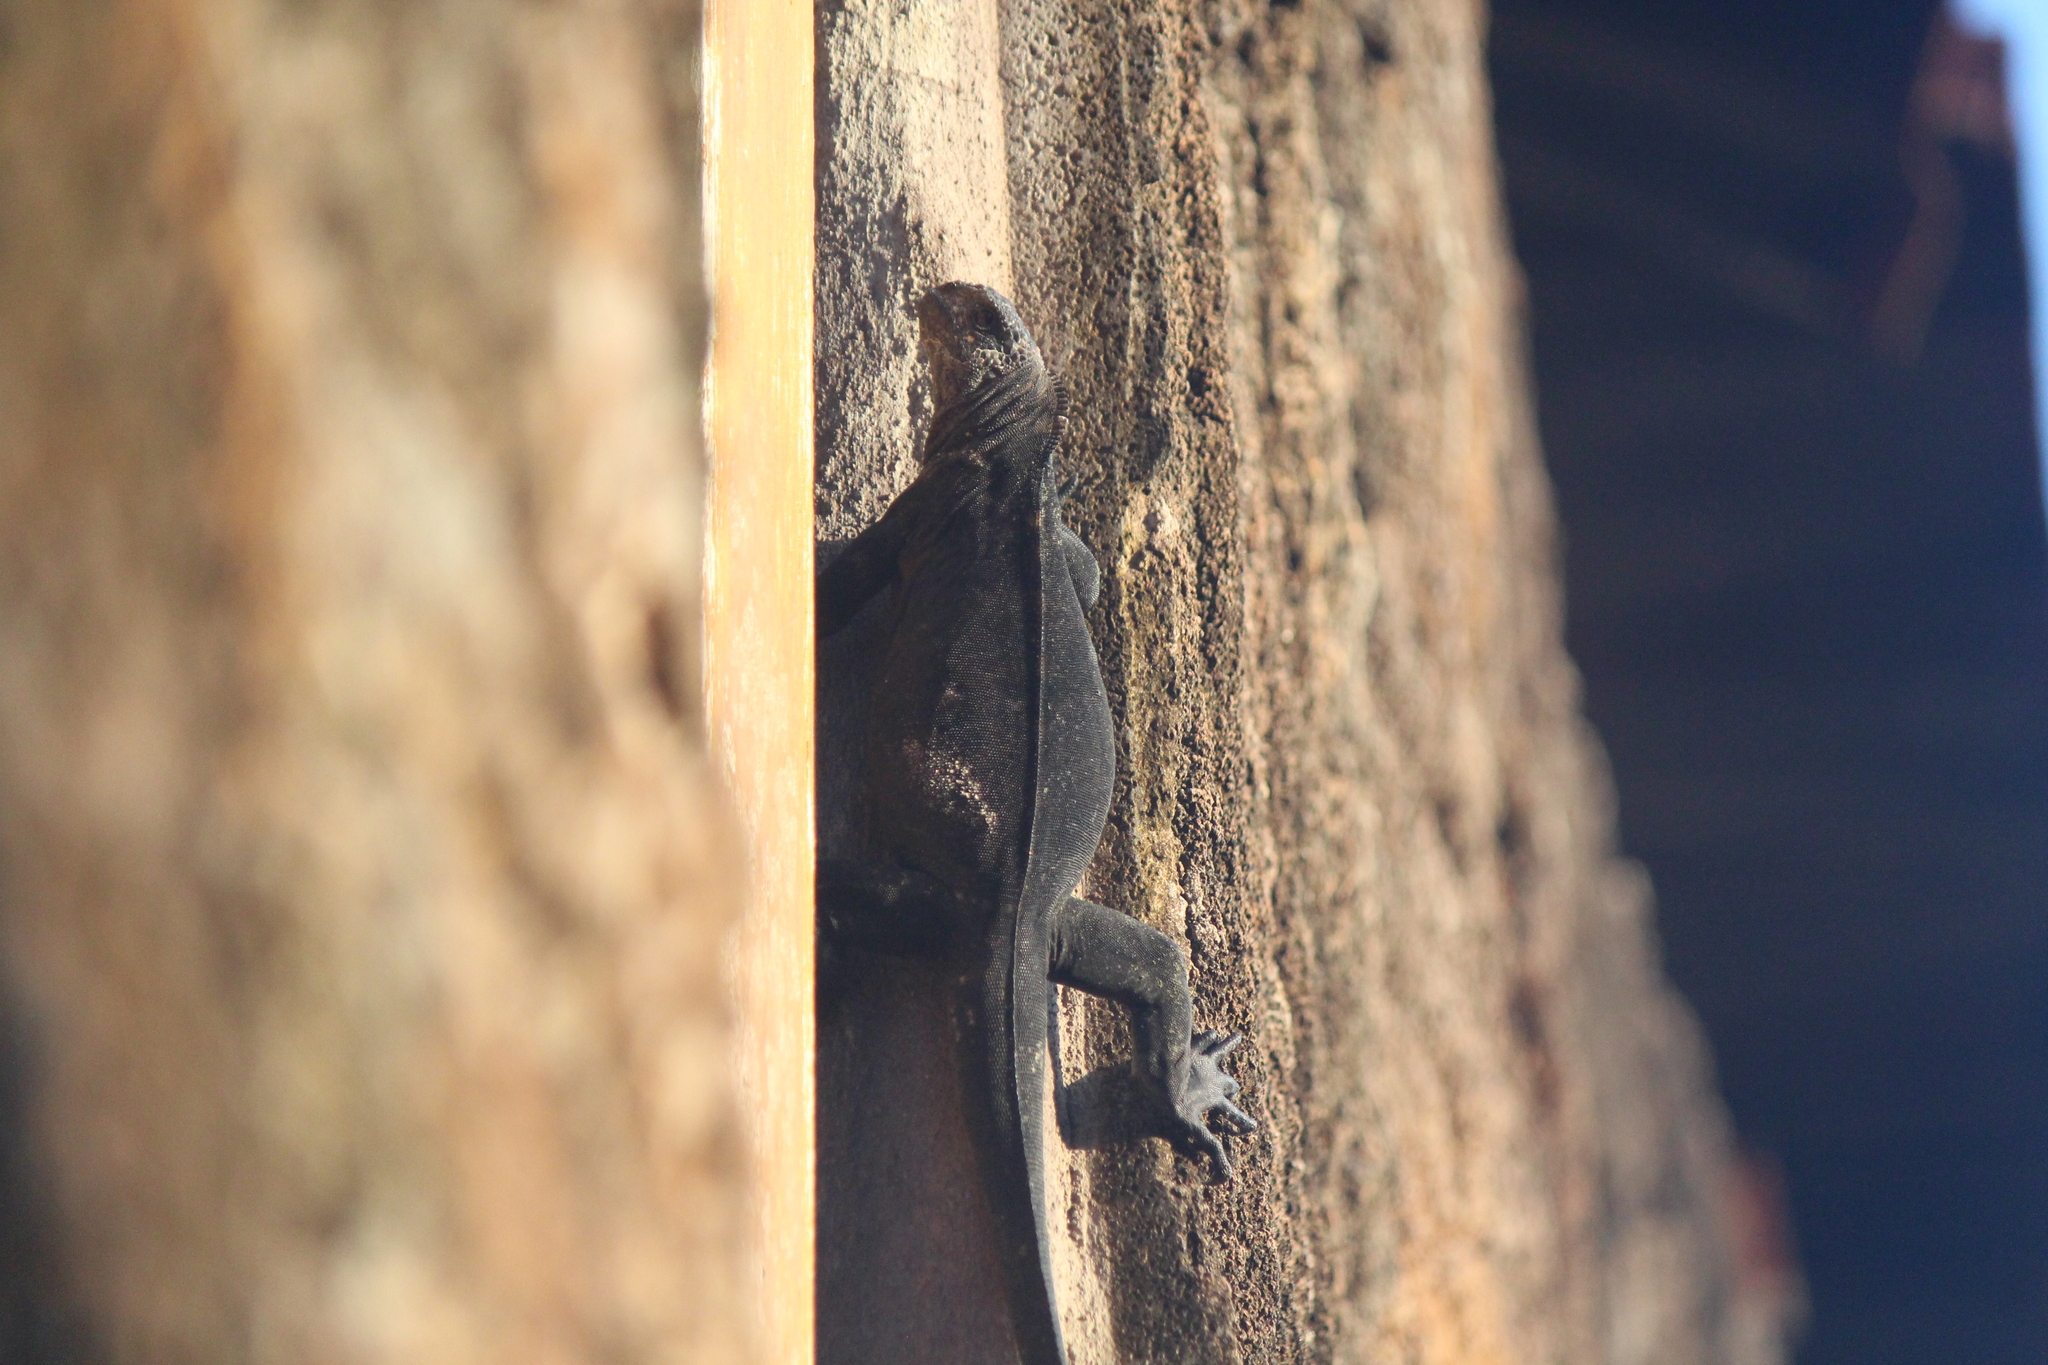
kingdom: Animalia
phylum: Chordata
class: Squamata
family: Iguanidae
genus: Amblyrhynchus
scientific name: Amblyrhynchus cristatus
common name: Marine iguana
